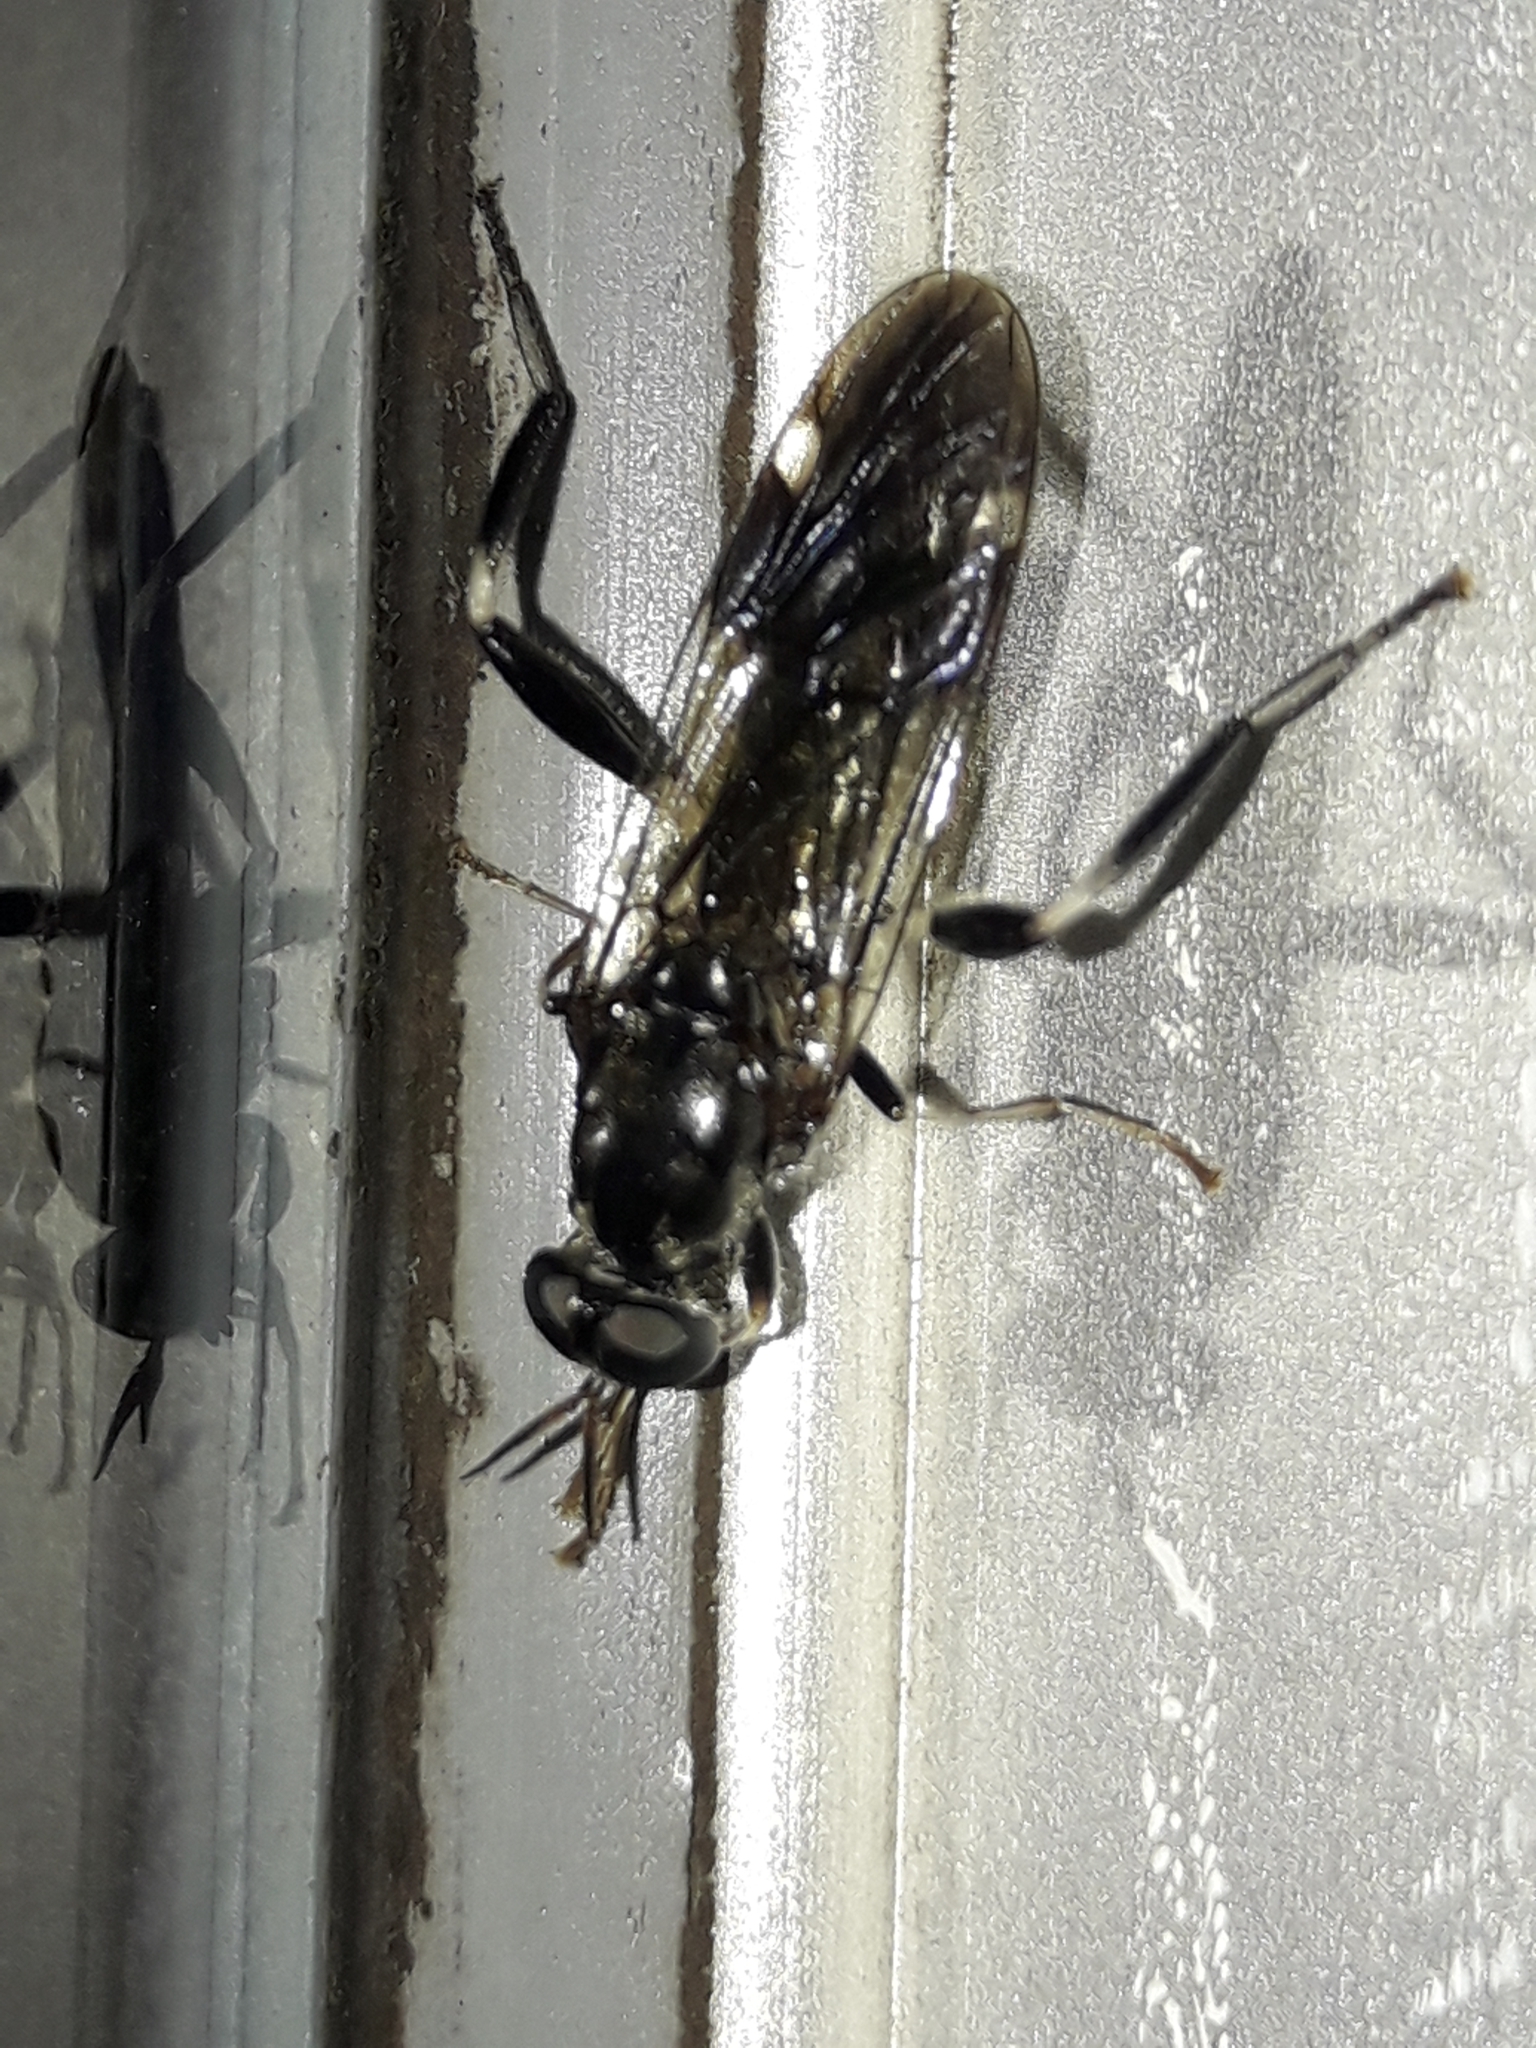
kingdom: Animalia
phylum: Arthropoda
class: Insecta
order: Diptera
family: Stratiomyidae
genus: Exaireta
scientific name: Exaireta spinigera
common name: Blue soldier fly
